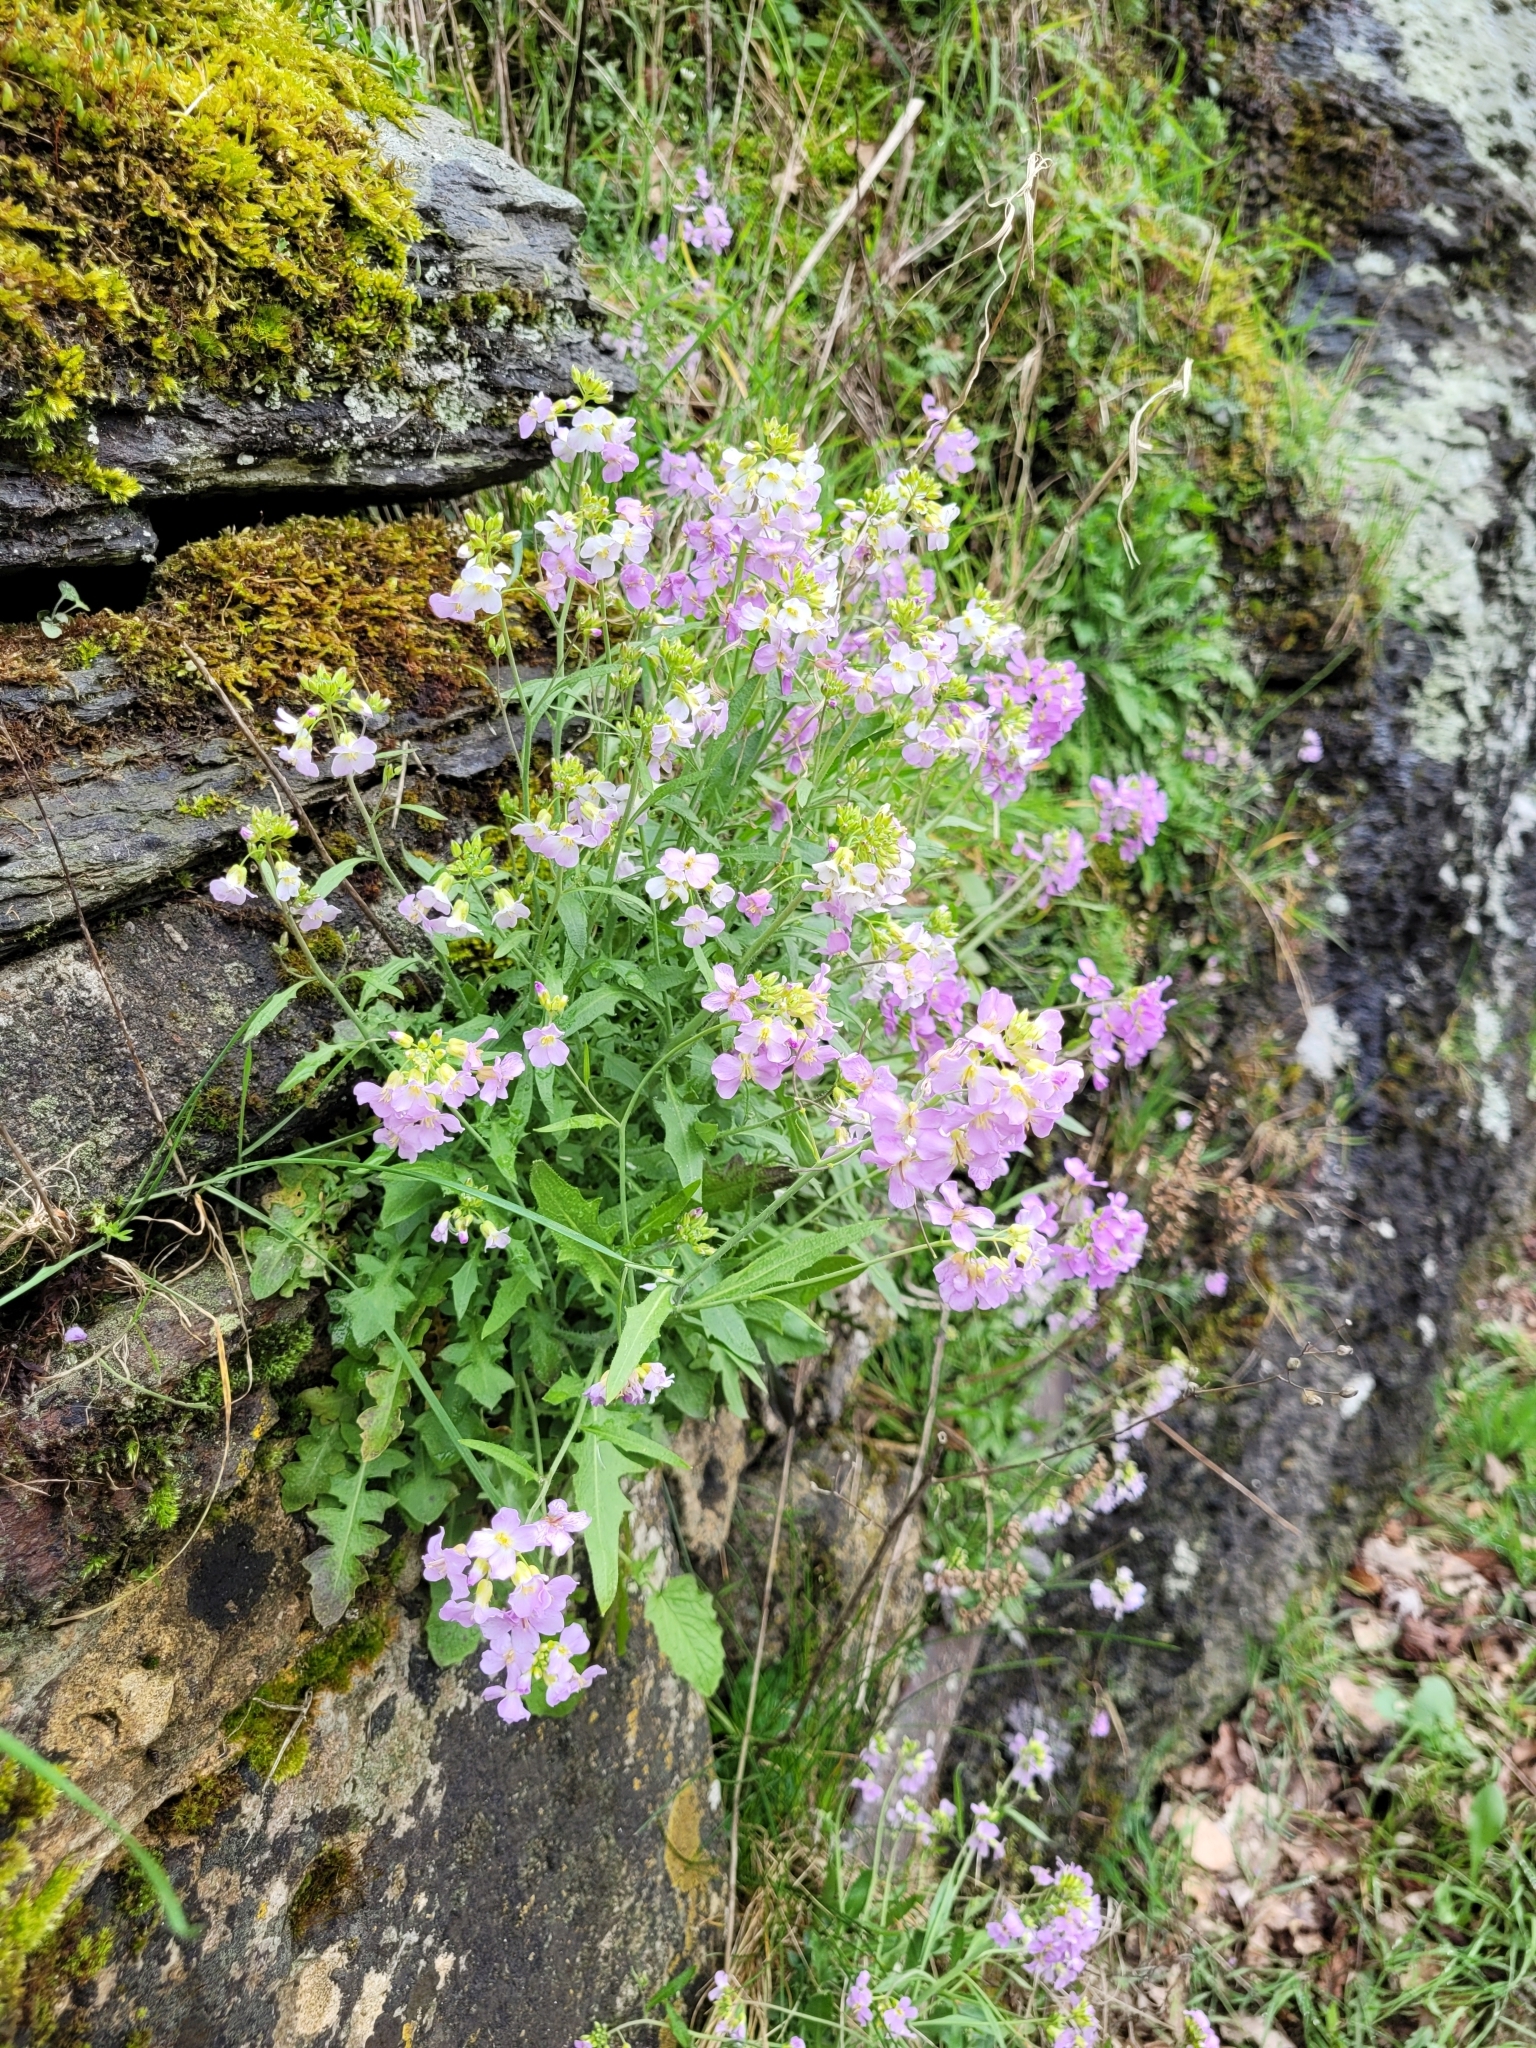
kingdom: Plantae
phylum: Tracheophyta
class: Magnoliopsida
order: Brassicales
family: Brassicaceae
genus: Arabidopsis
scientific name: Arabidopsis arenosa
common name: Sand rock-cress
